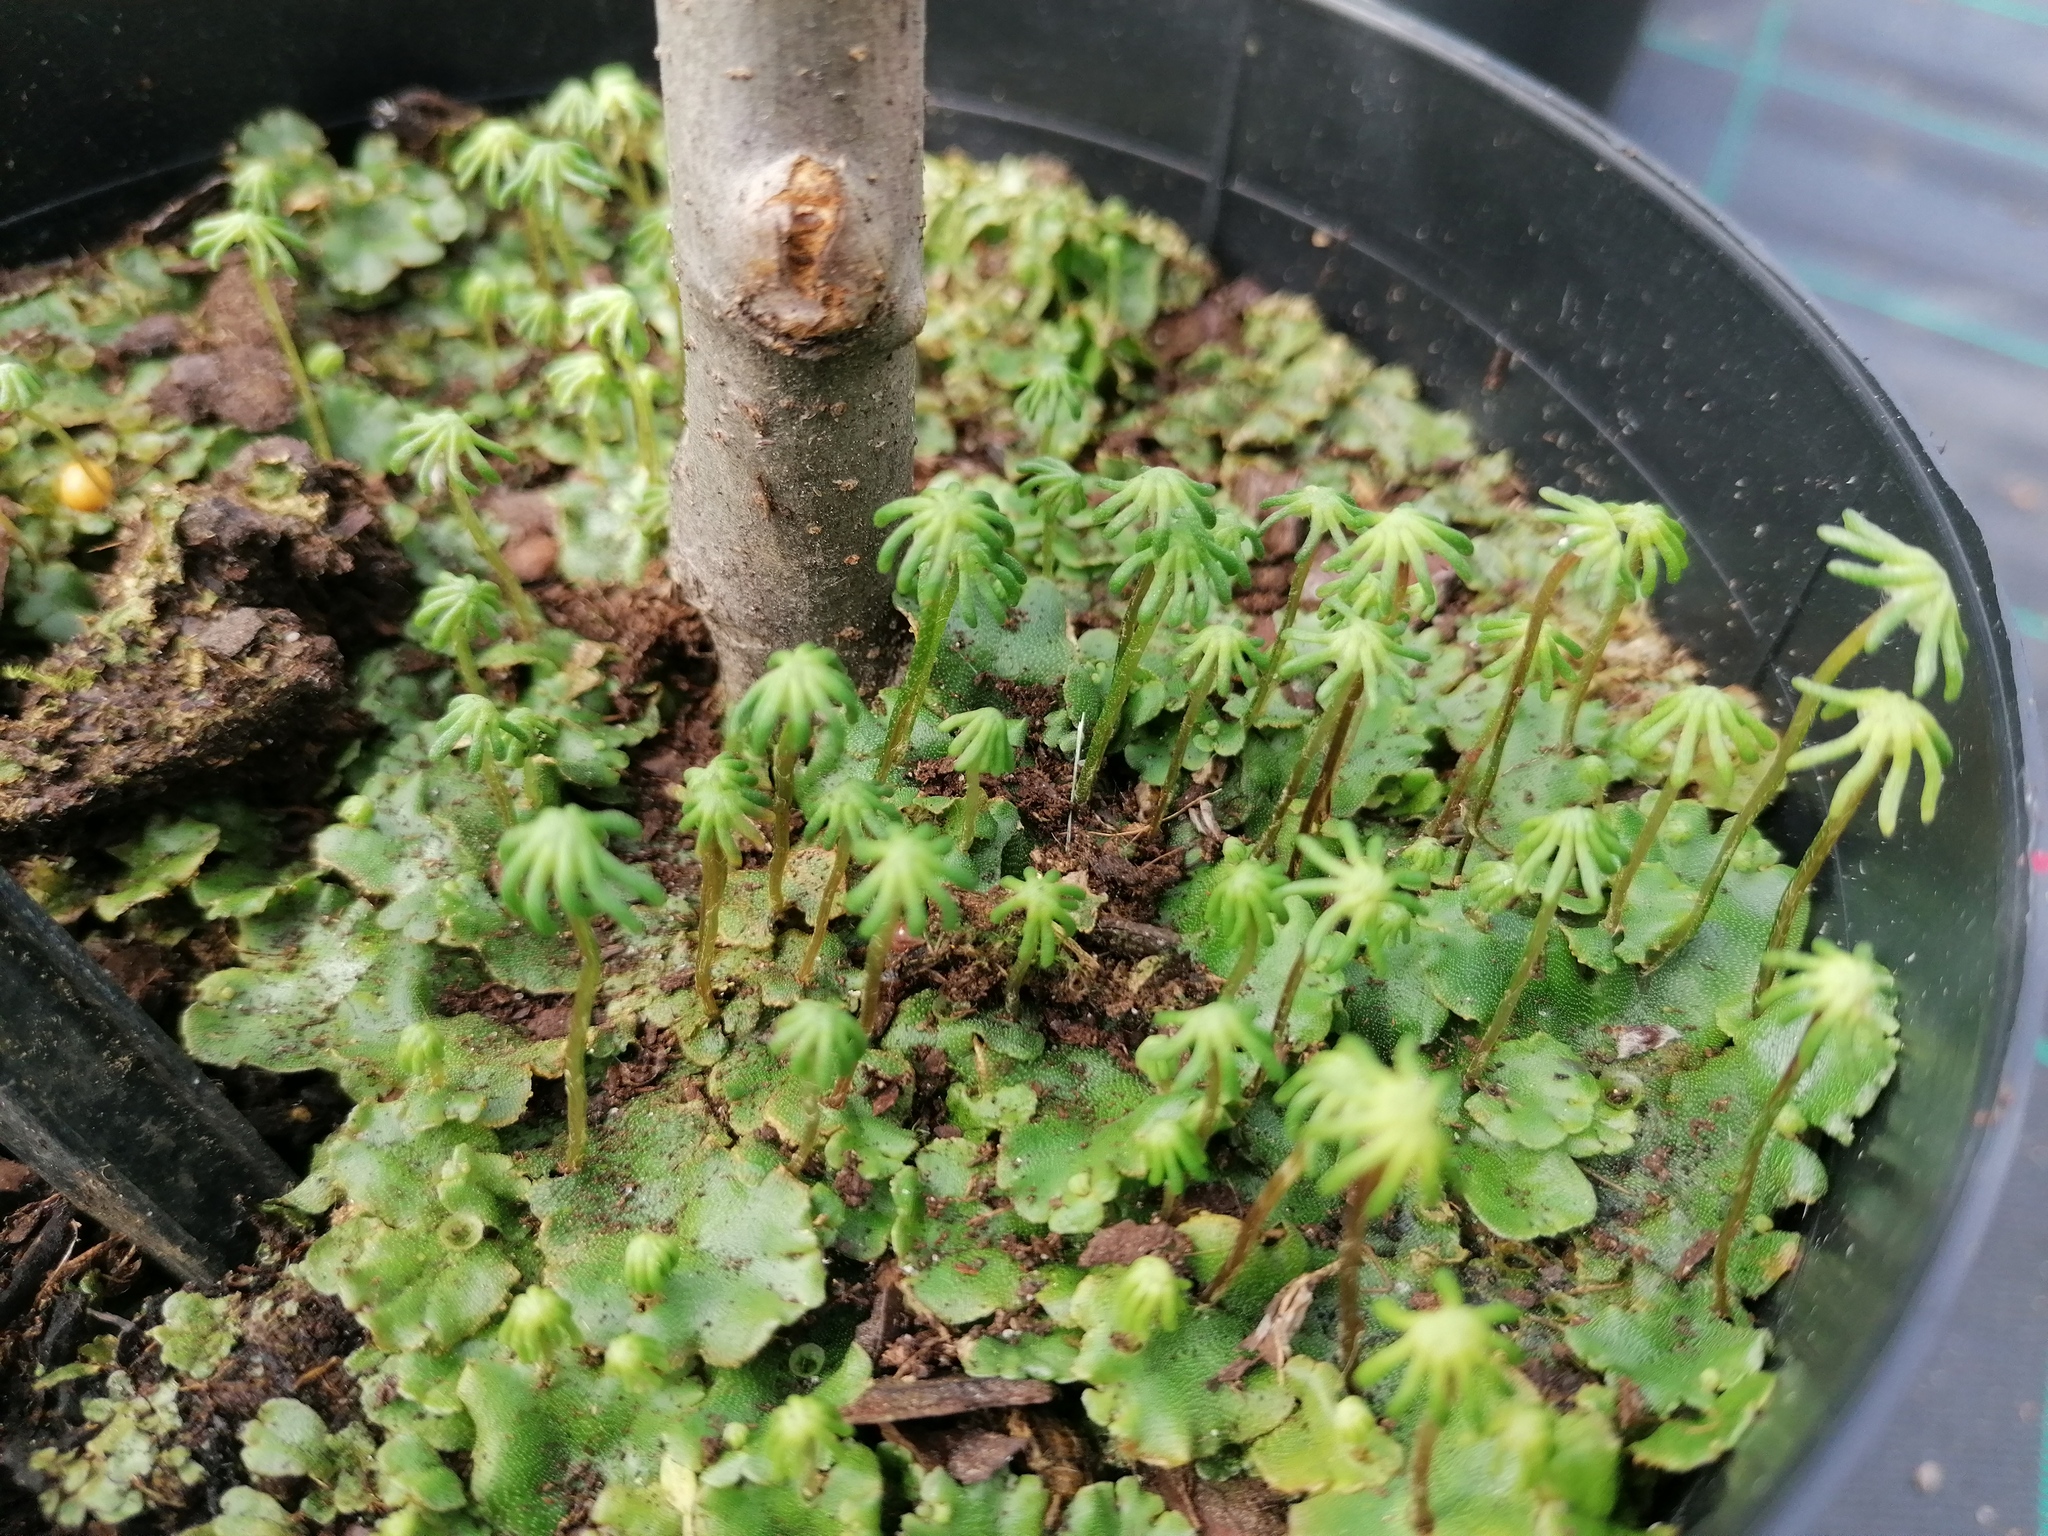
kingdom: Plantae
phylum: Marchantiophyta
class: Marchantiopsida
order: Marchantiales
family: Marchantiaceae
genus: Marchantia
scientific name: Marchantia polymorpha
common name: Common liverwort
